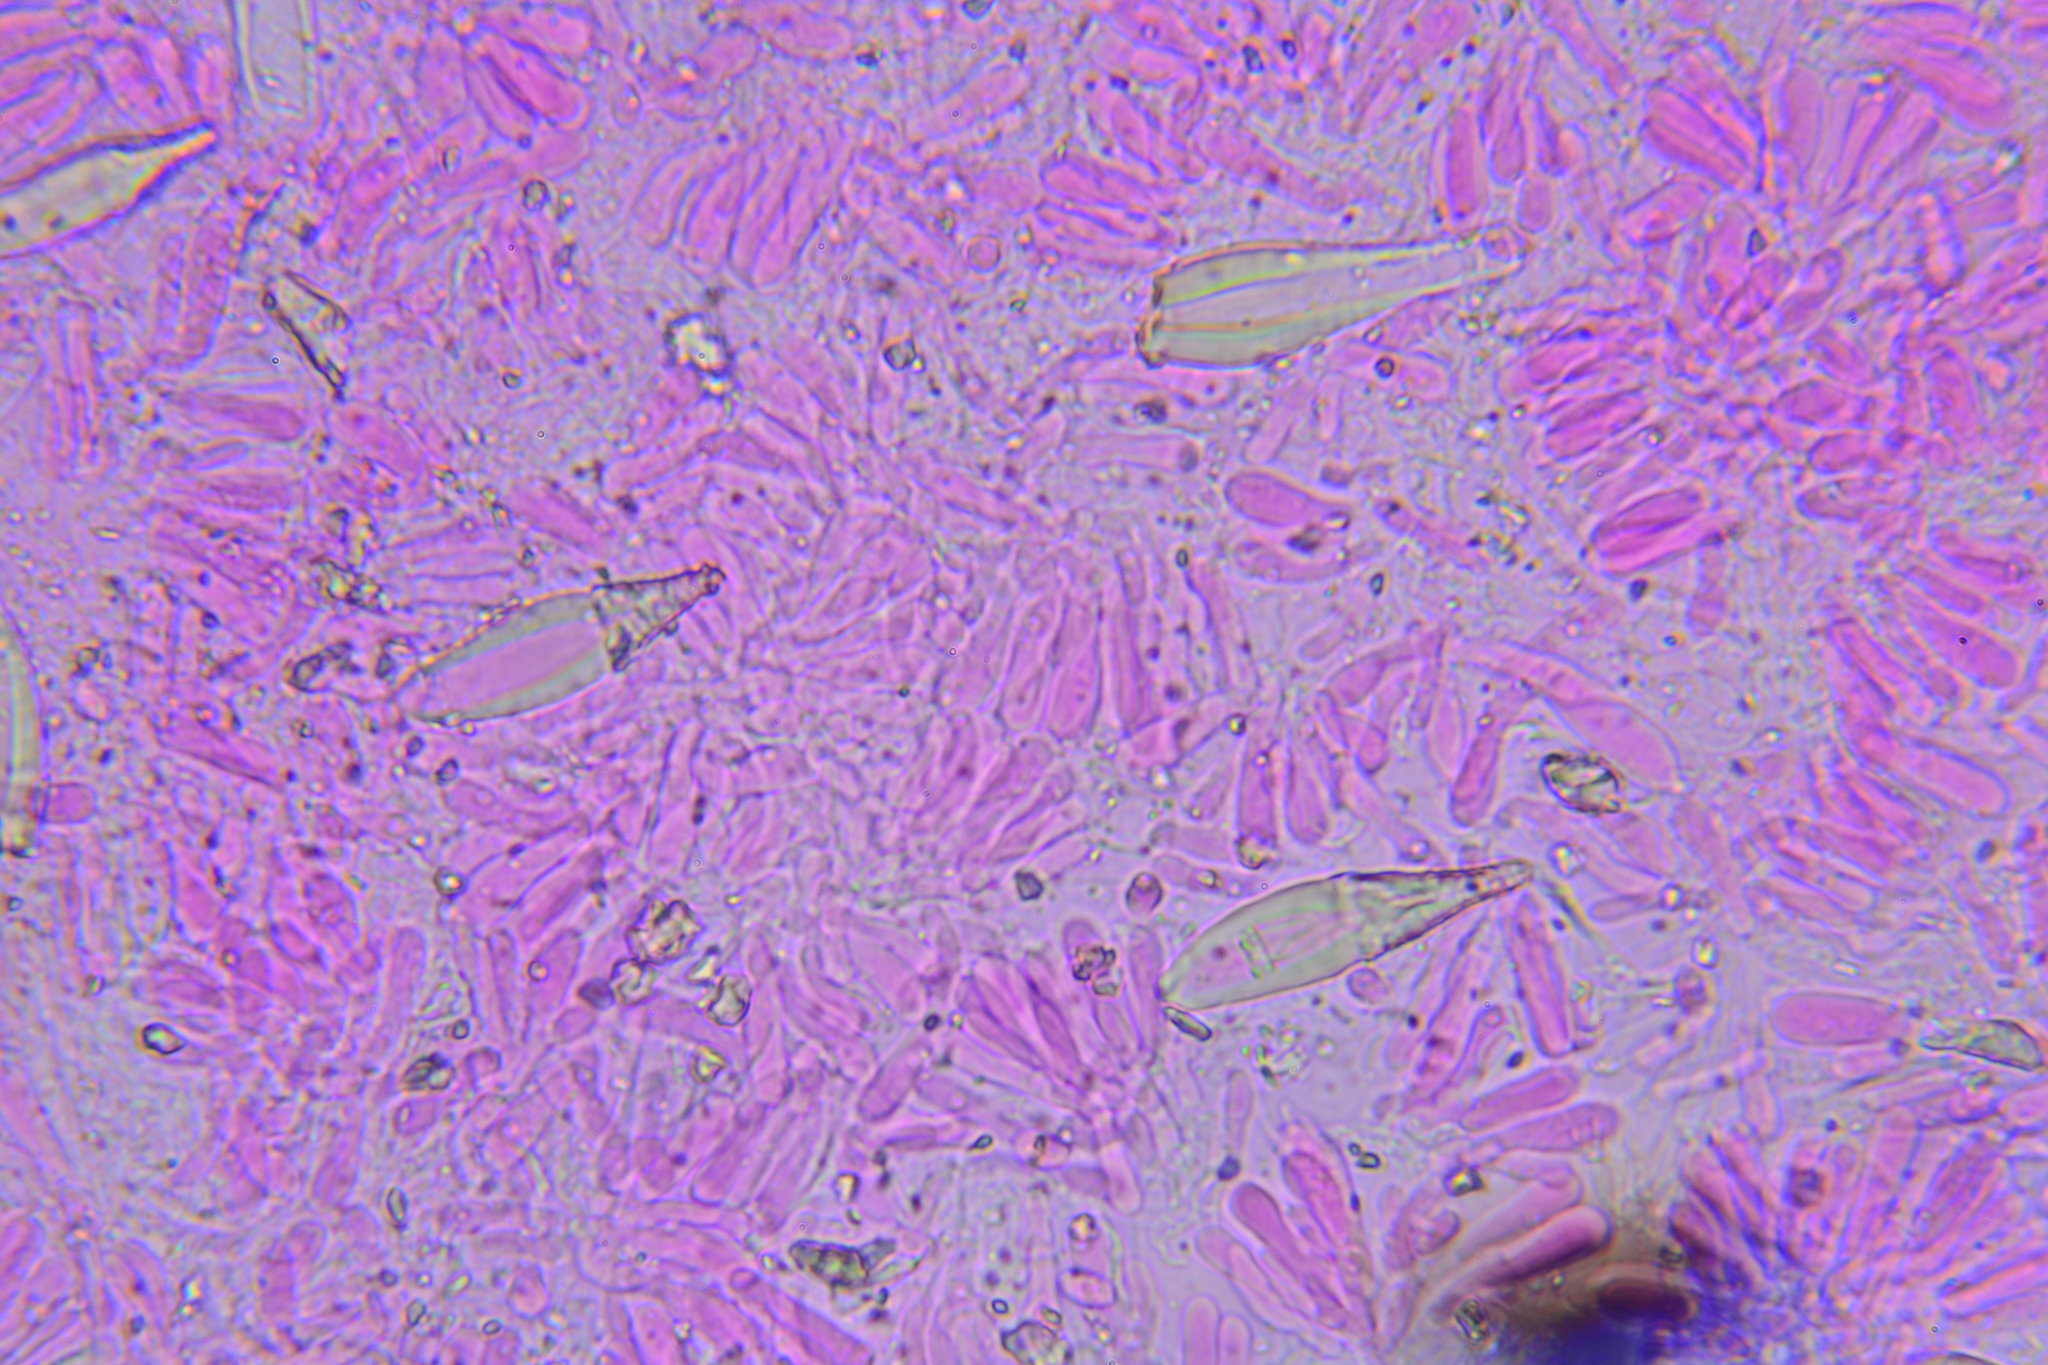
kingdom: Fungi
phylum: Basidiomycota
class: Agaricomycetes
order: Agaricales
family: Pleurotaceae
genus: Hohenbuehelia
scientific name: Hohenbuehelia grisea
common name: Shadowy oysterling
